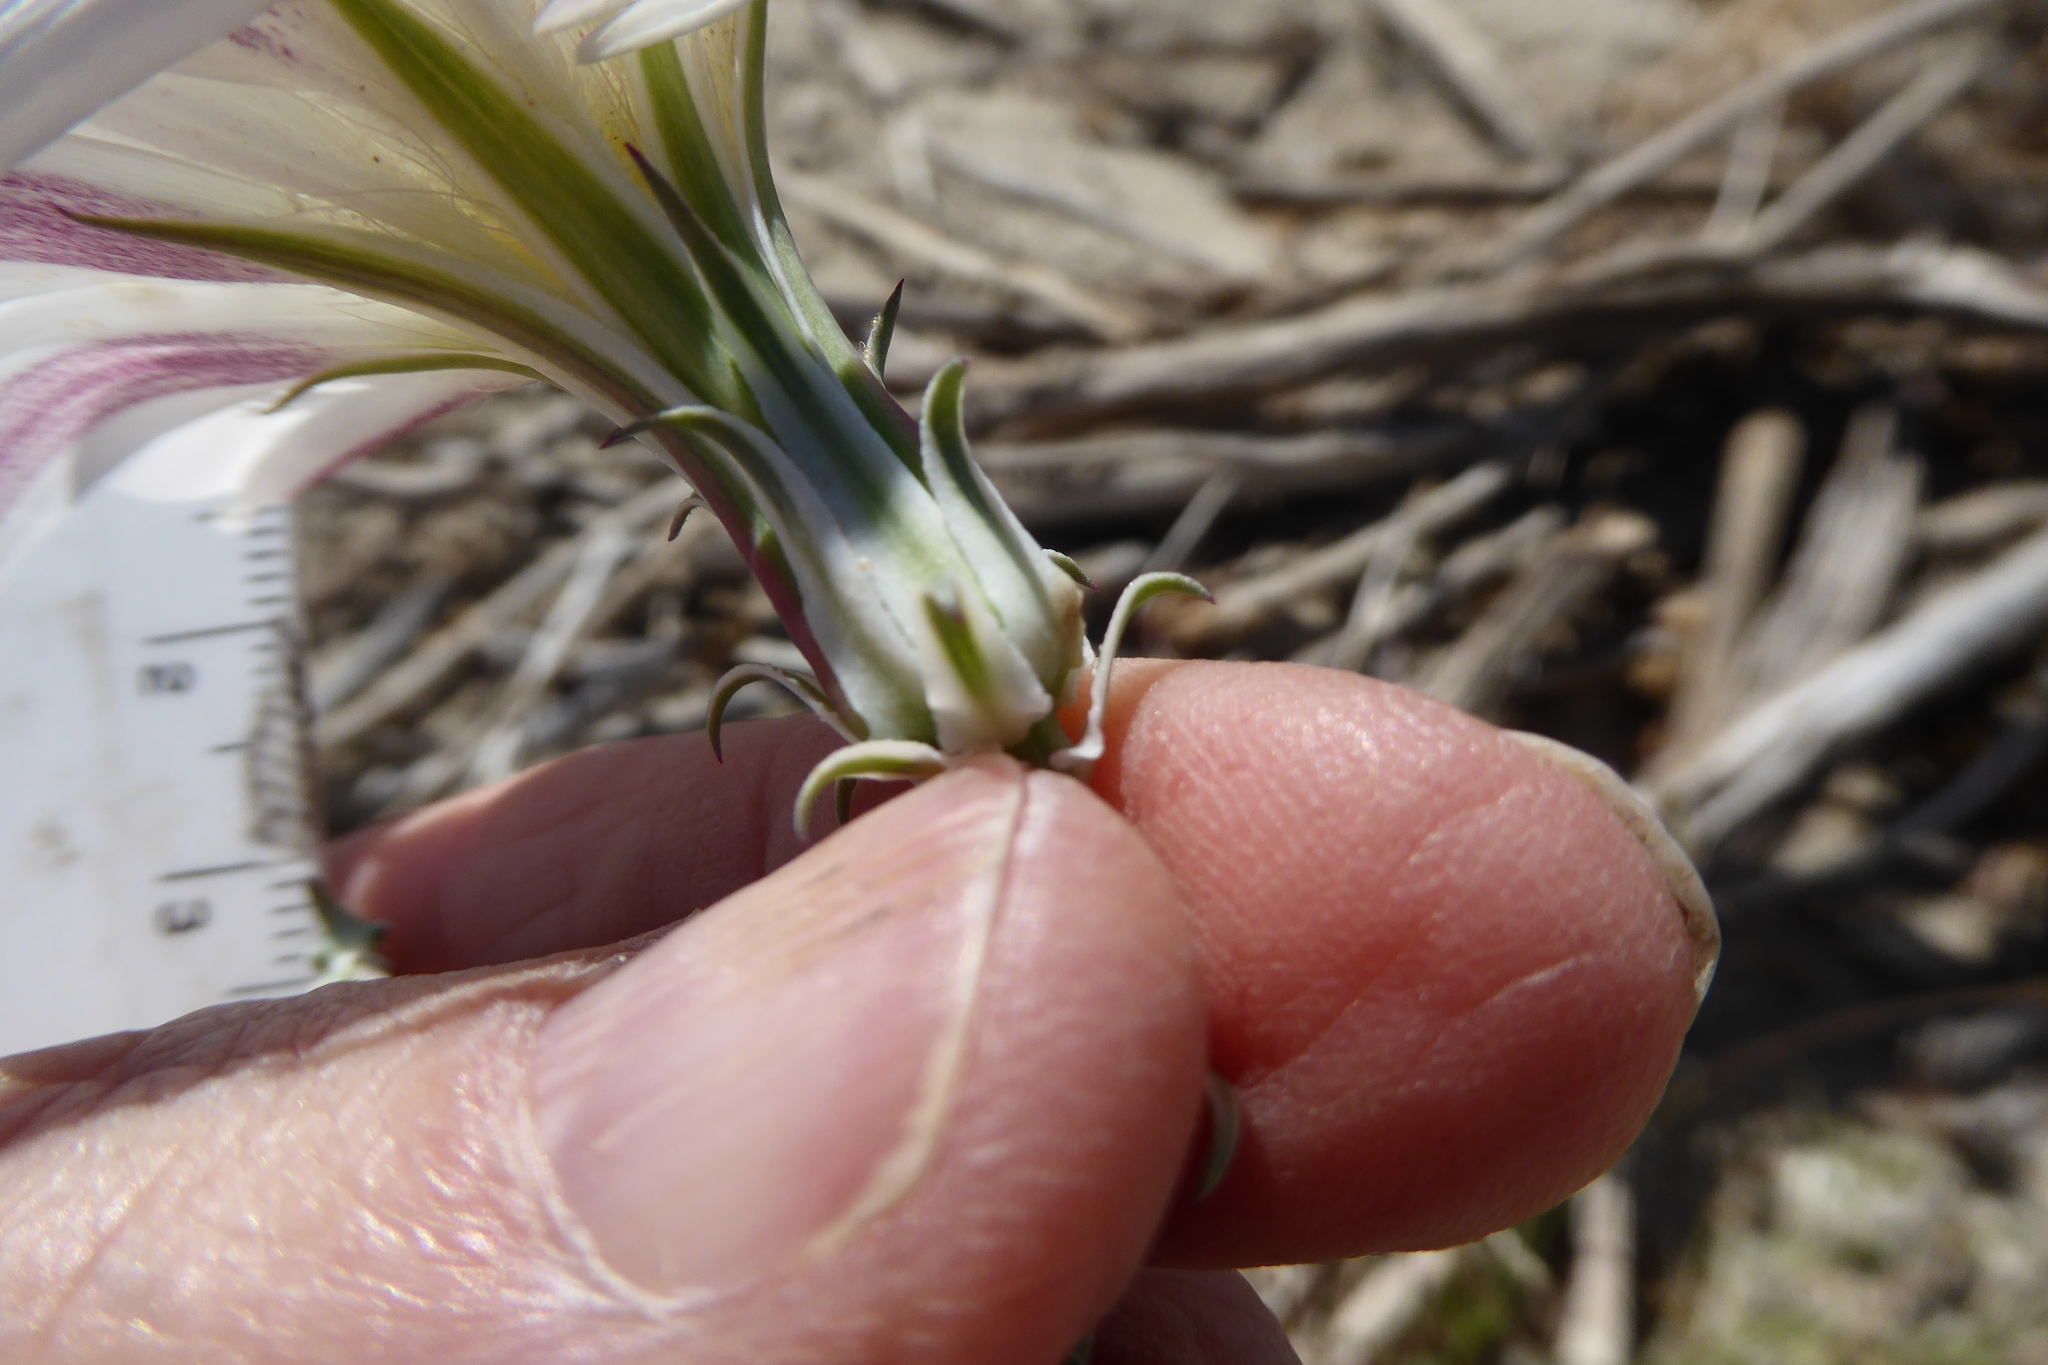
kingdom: Plantae
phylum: Tracheophyta
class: Magnoliopsida
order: Asterales
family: Asteraceae
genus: Rafinesquia
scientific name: Rafinesquia neomexicana
